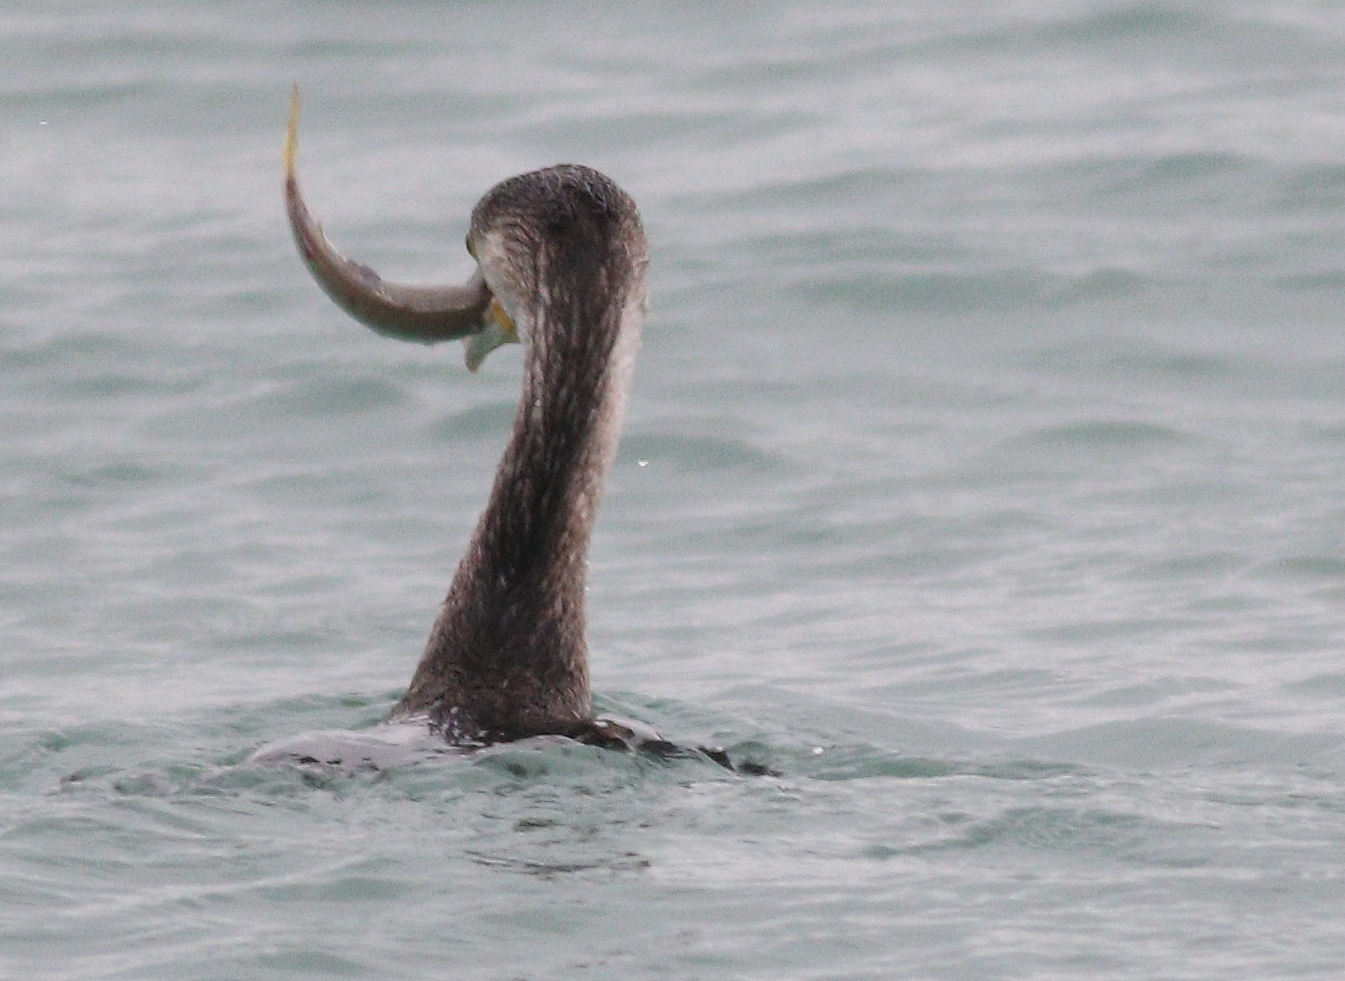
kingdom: Animalia
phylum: Chordata
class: Aves
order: Suliformes
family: Phalacrocoracidae
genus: Phalacrocorax
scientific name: Phalacrocorax carbo
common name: Great cormorant
